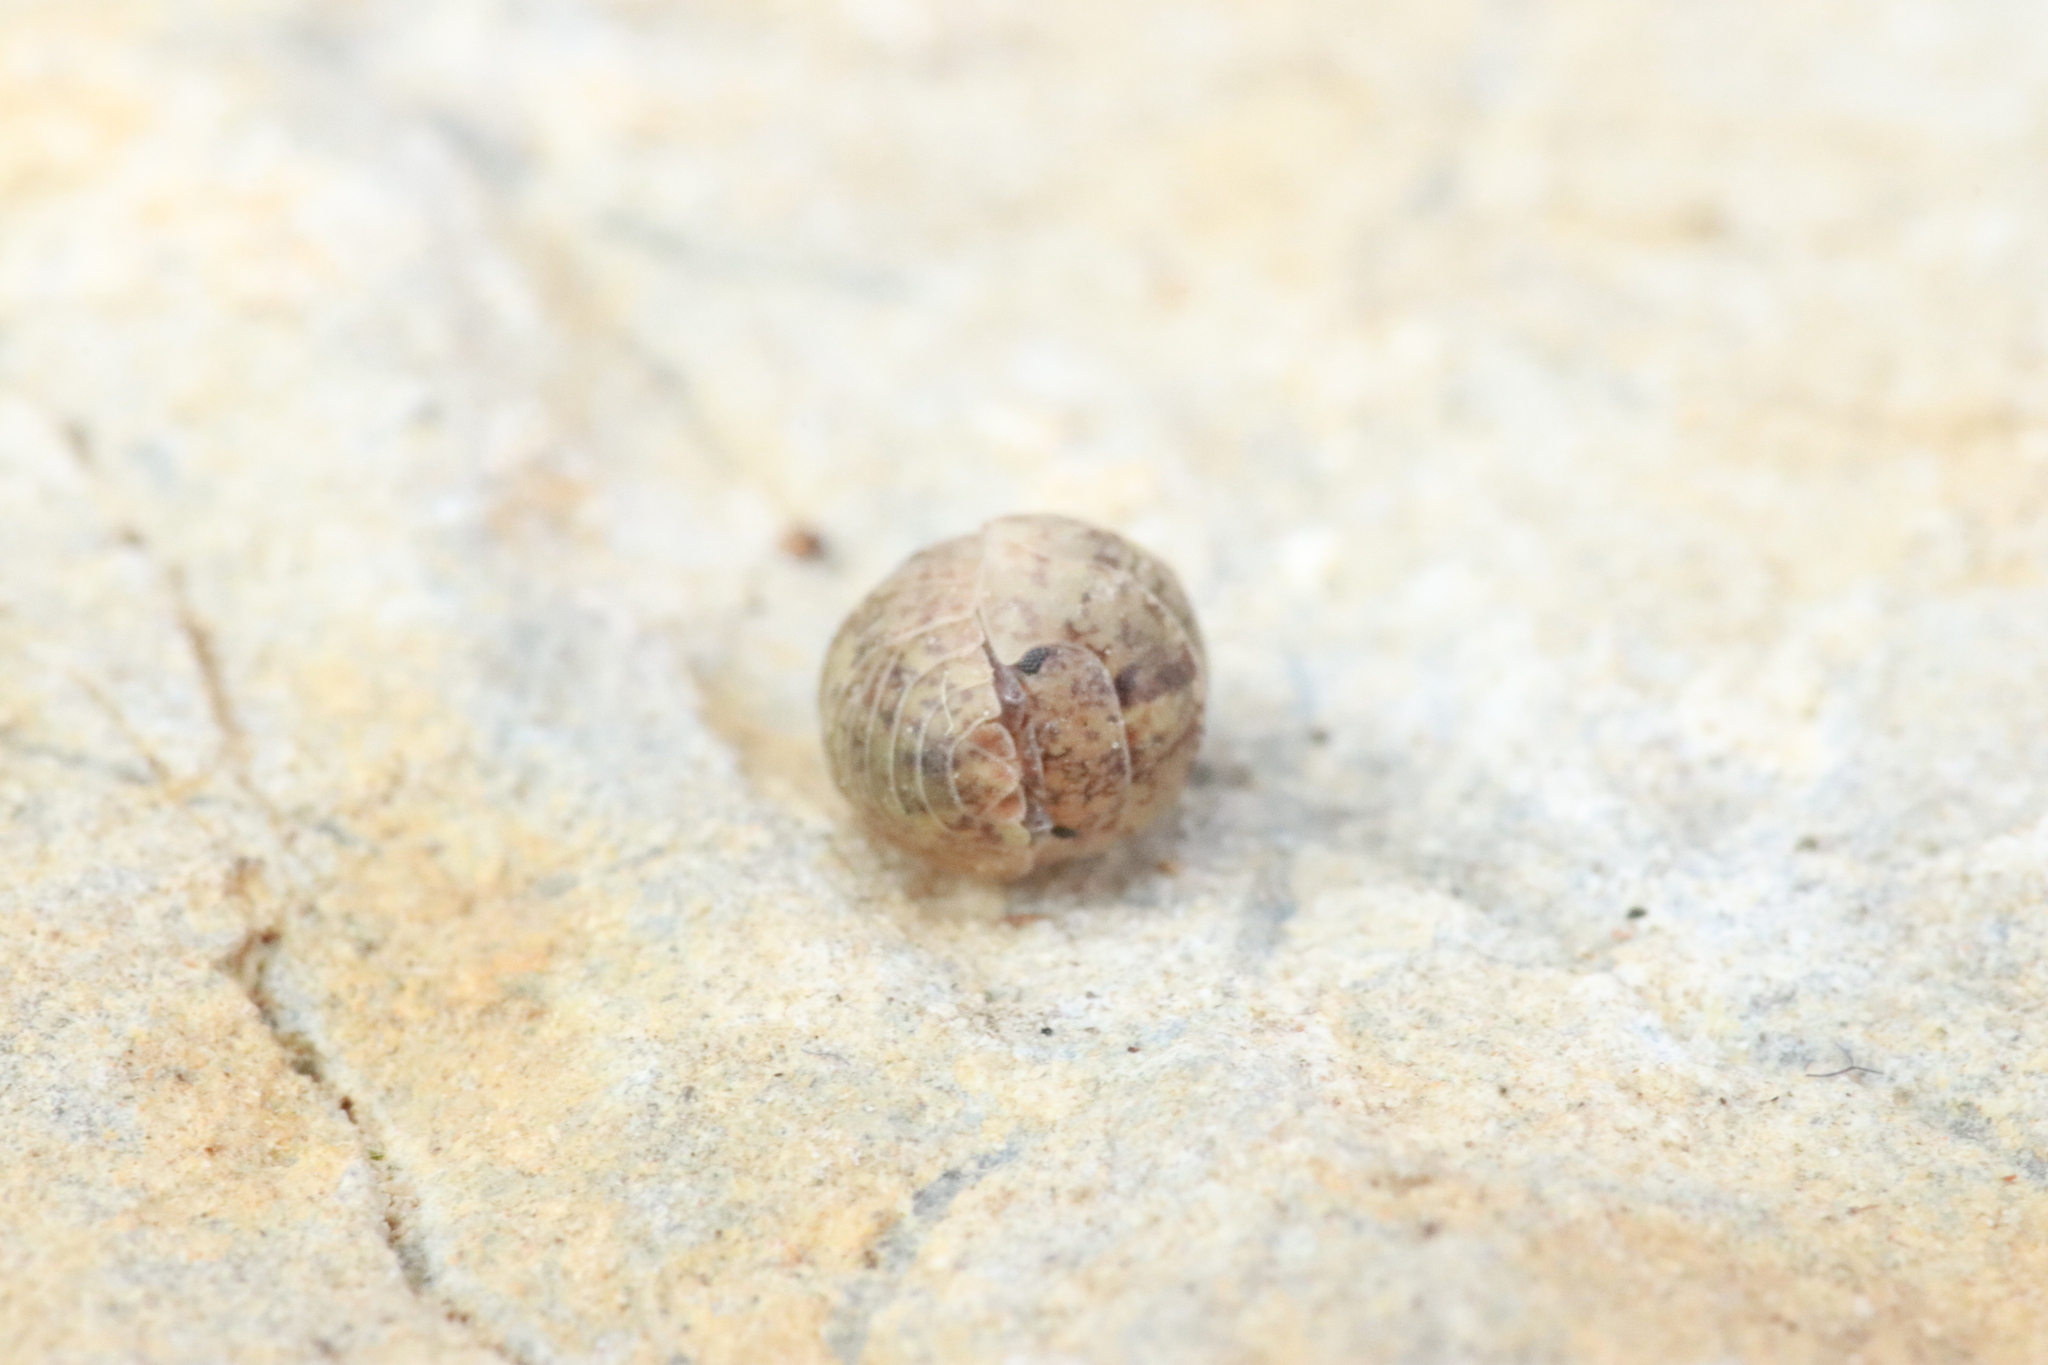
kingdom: Animalia
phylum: Arthropoda
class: Malacostraca
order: Isopoda
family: Armadillidiidae
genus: Armadillidium
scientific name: Armadillidium arcangelii
